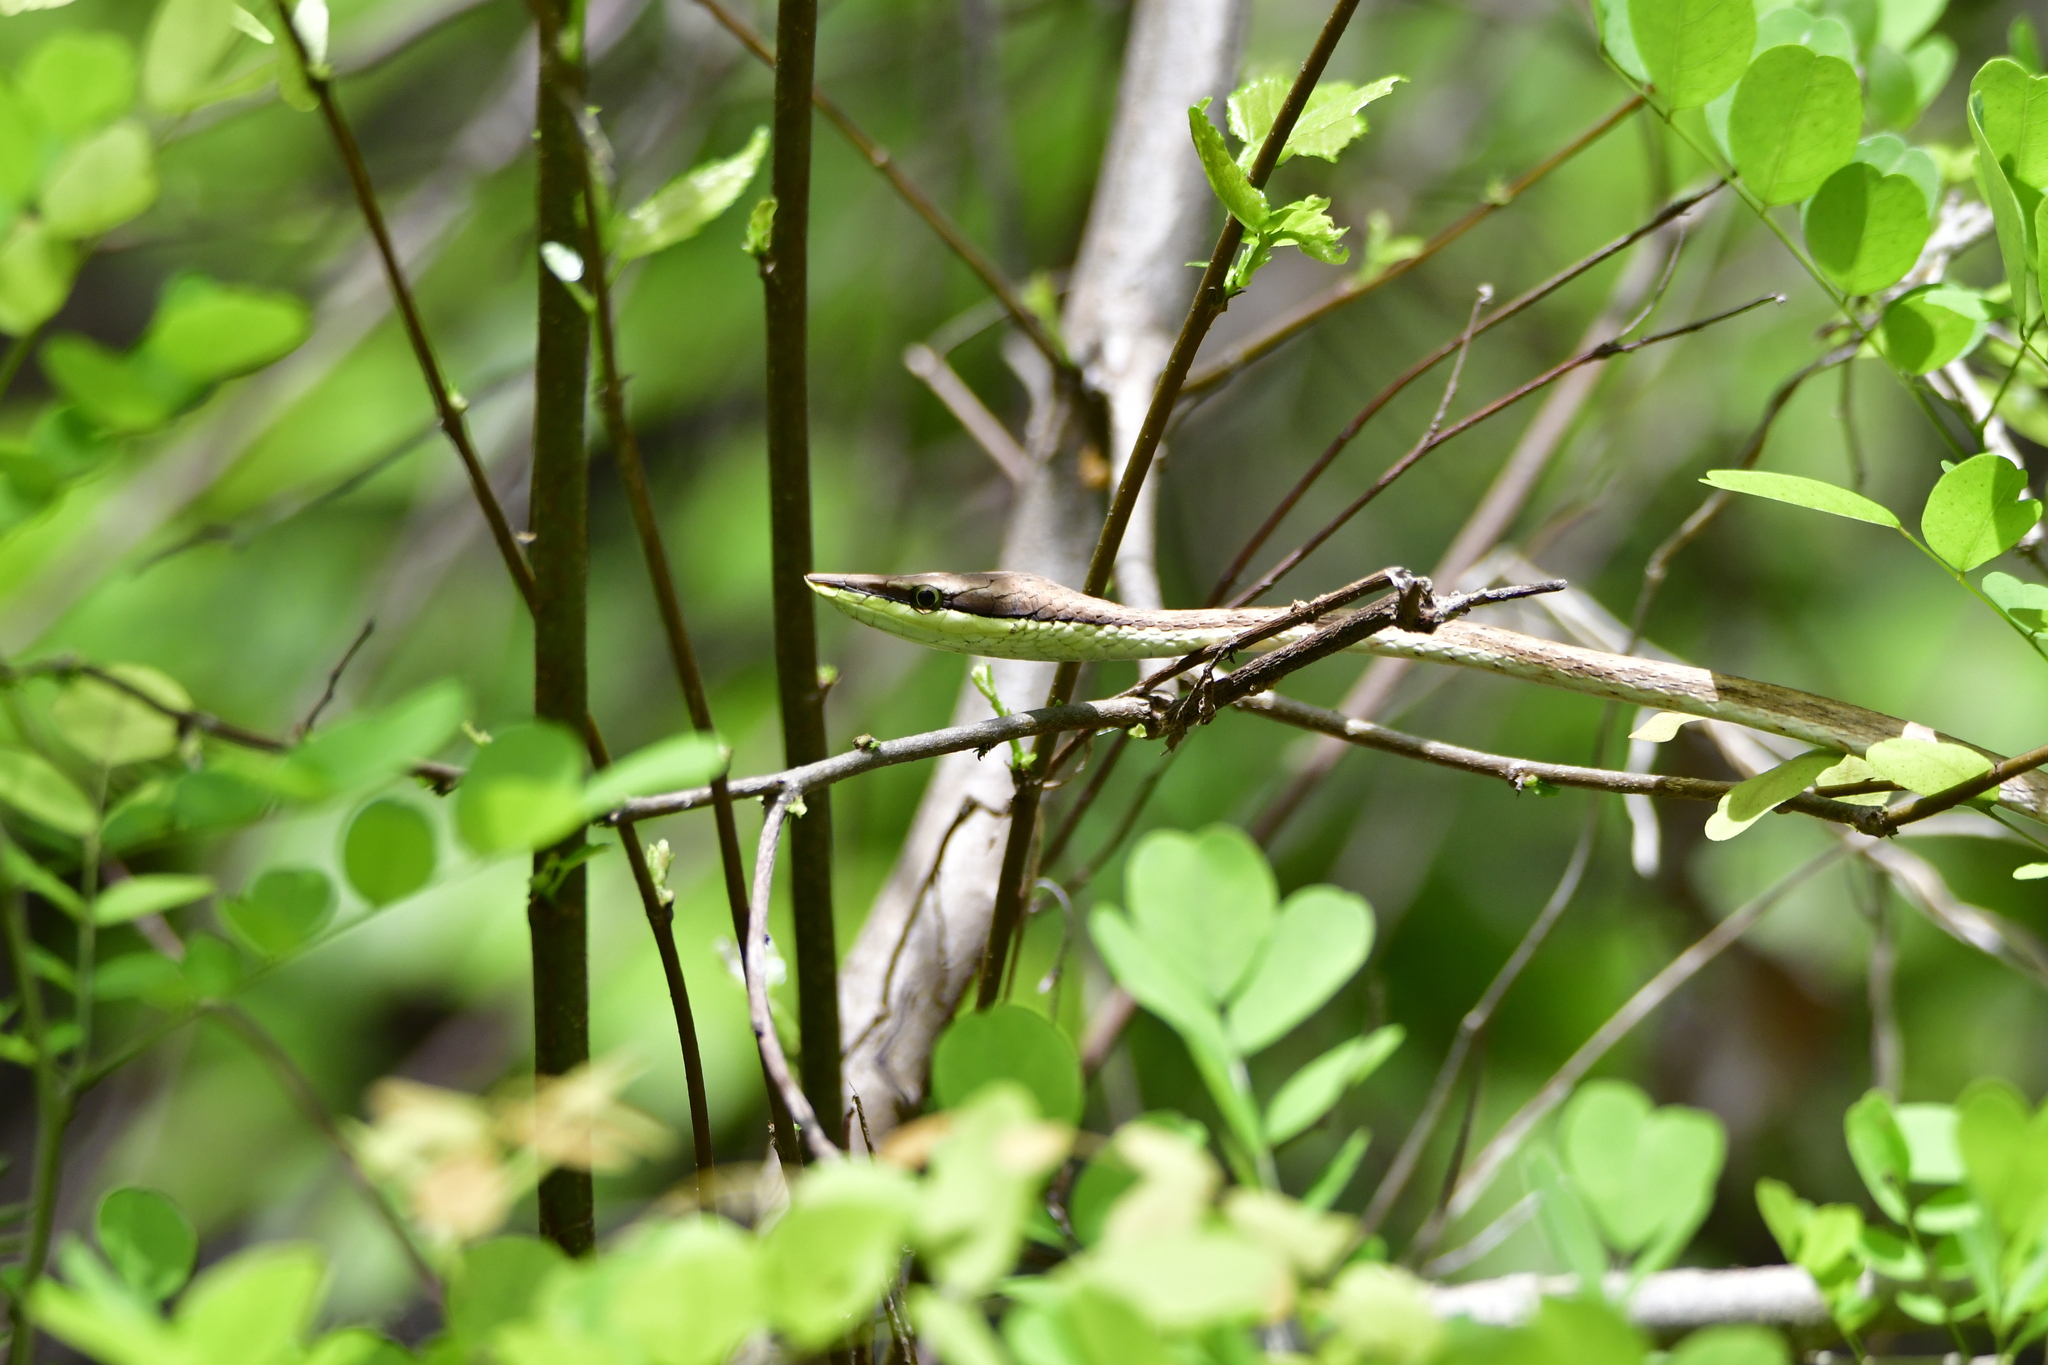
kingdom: Animalia
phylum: Chordata
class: Squamata
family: Colubridae
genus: Oxybelis
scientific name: Oxybelis microphthalmus
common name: Thrornscrub vine snake
